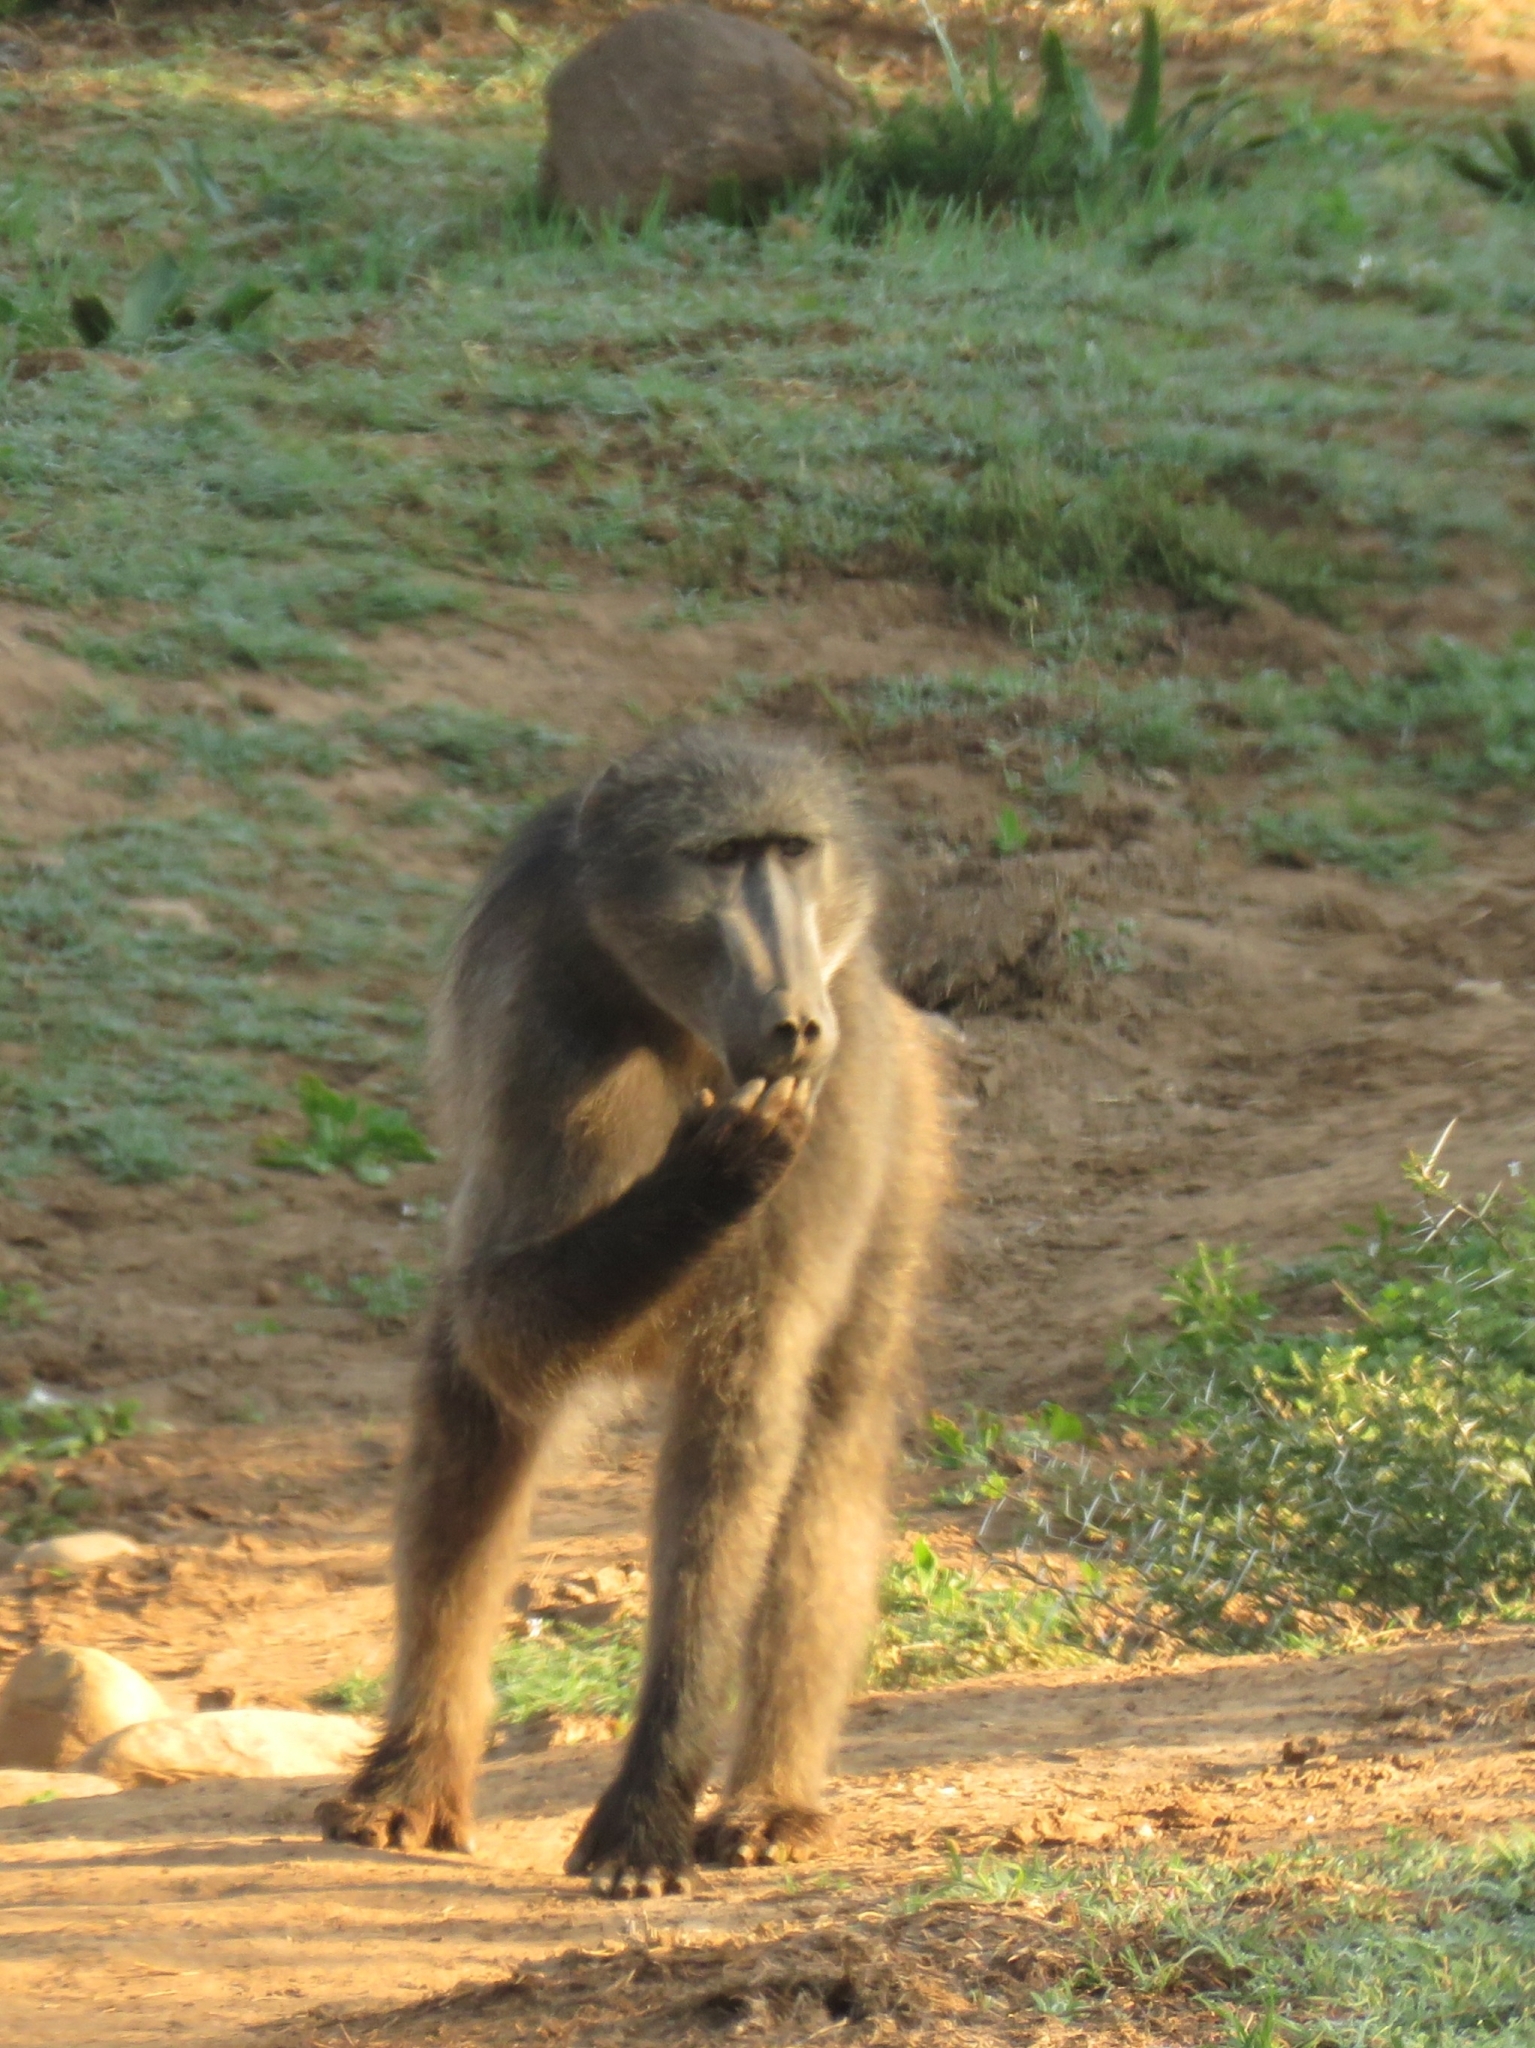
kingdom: Animalia
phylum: Chordata
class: Mammalia
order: Primates
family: Cercopithecidae
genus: Papio
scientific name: Papio ursinus
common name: Chacma baboon
